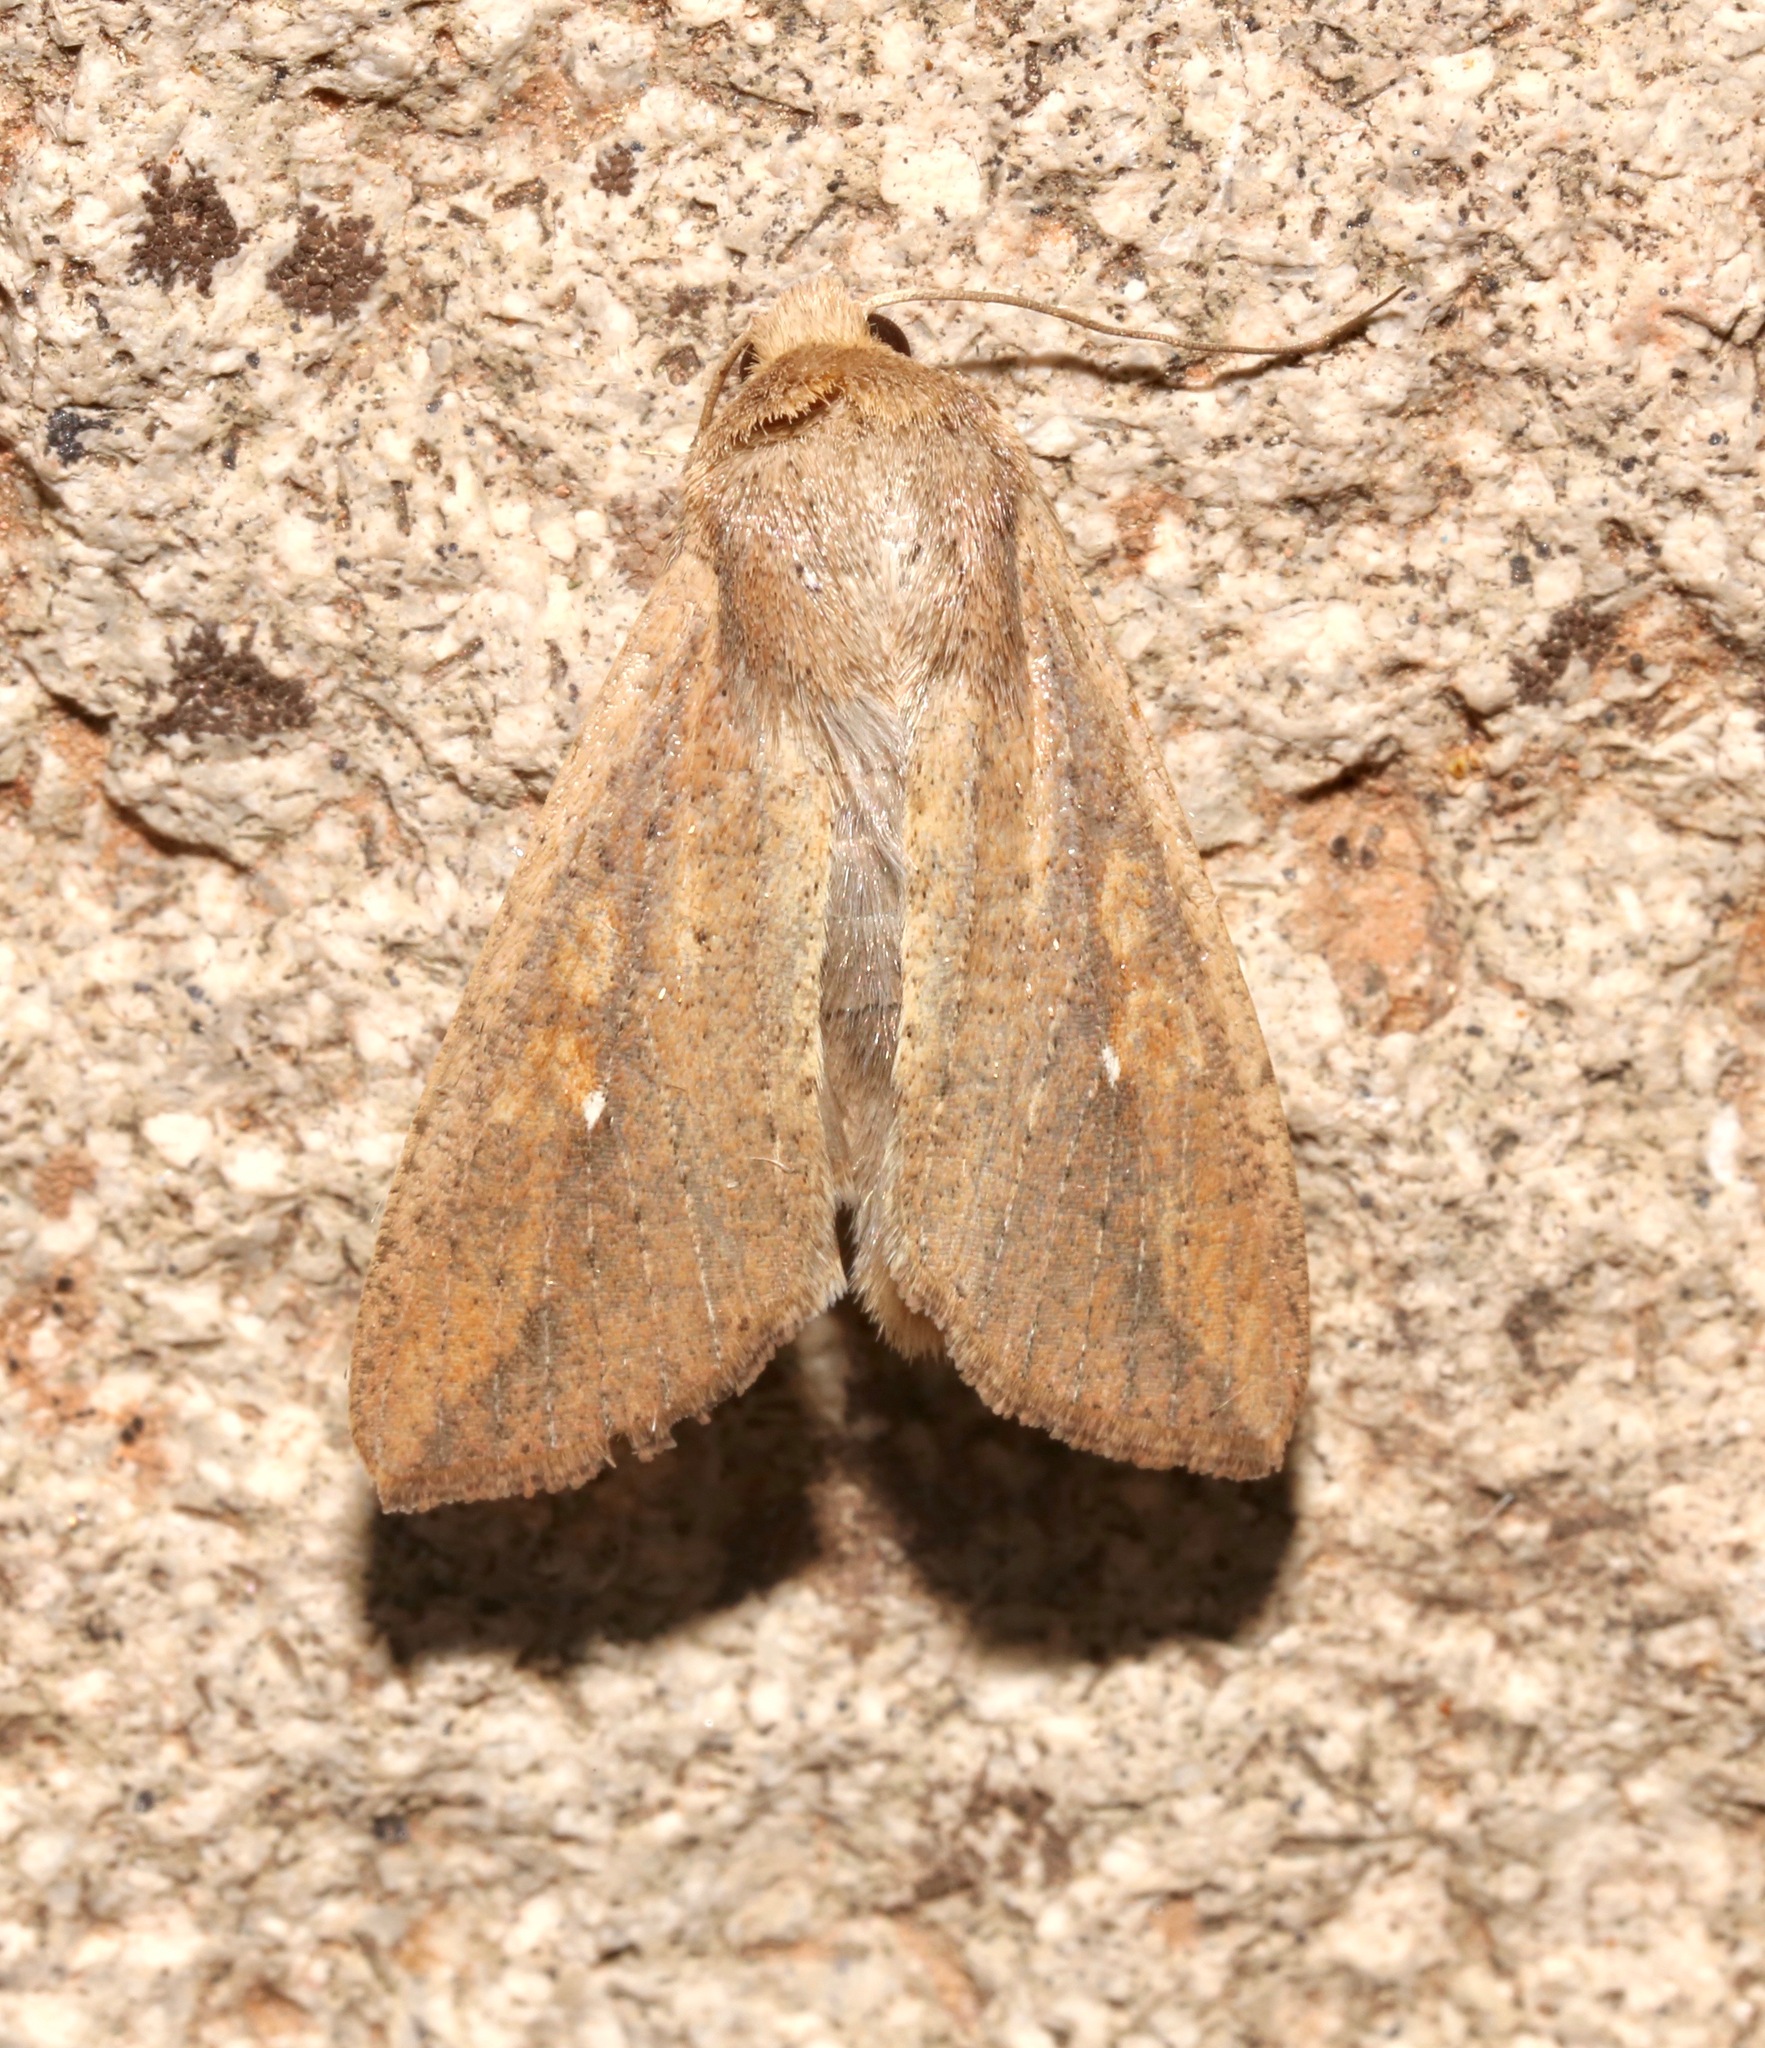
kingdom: Animalia
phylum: Arthropoda
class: Insecta
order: Lepidoptera
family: Noctuidae
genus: Mythimna
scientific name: Mythimna unipuncta
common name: White-speck
